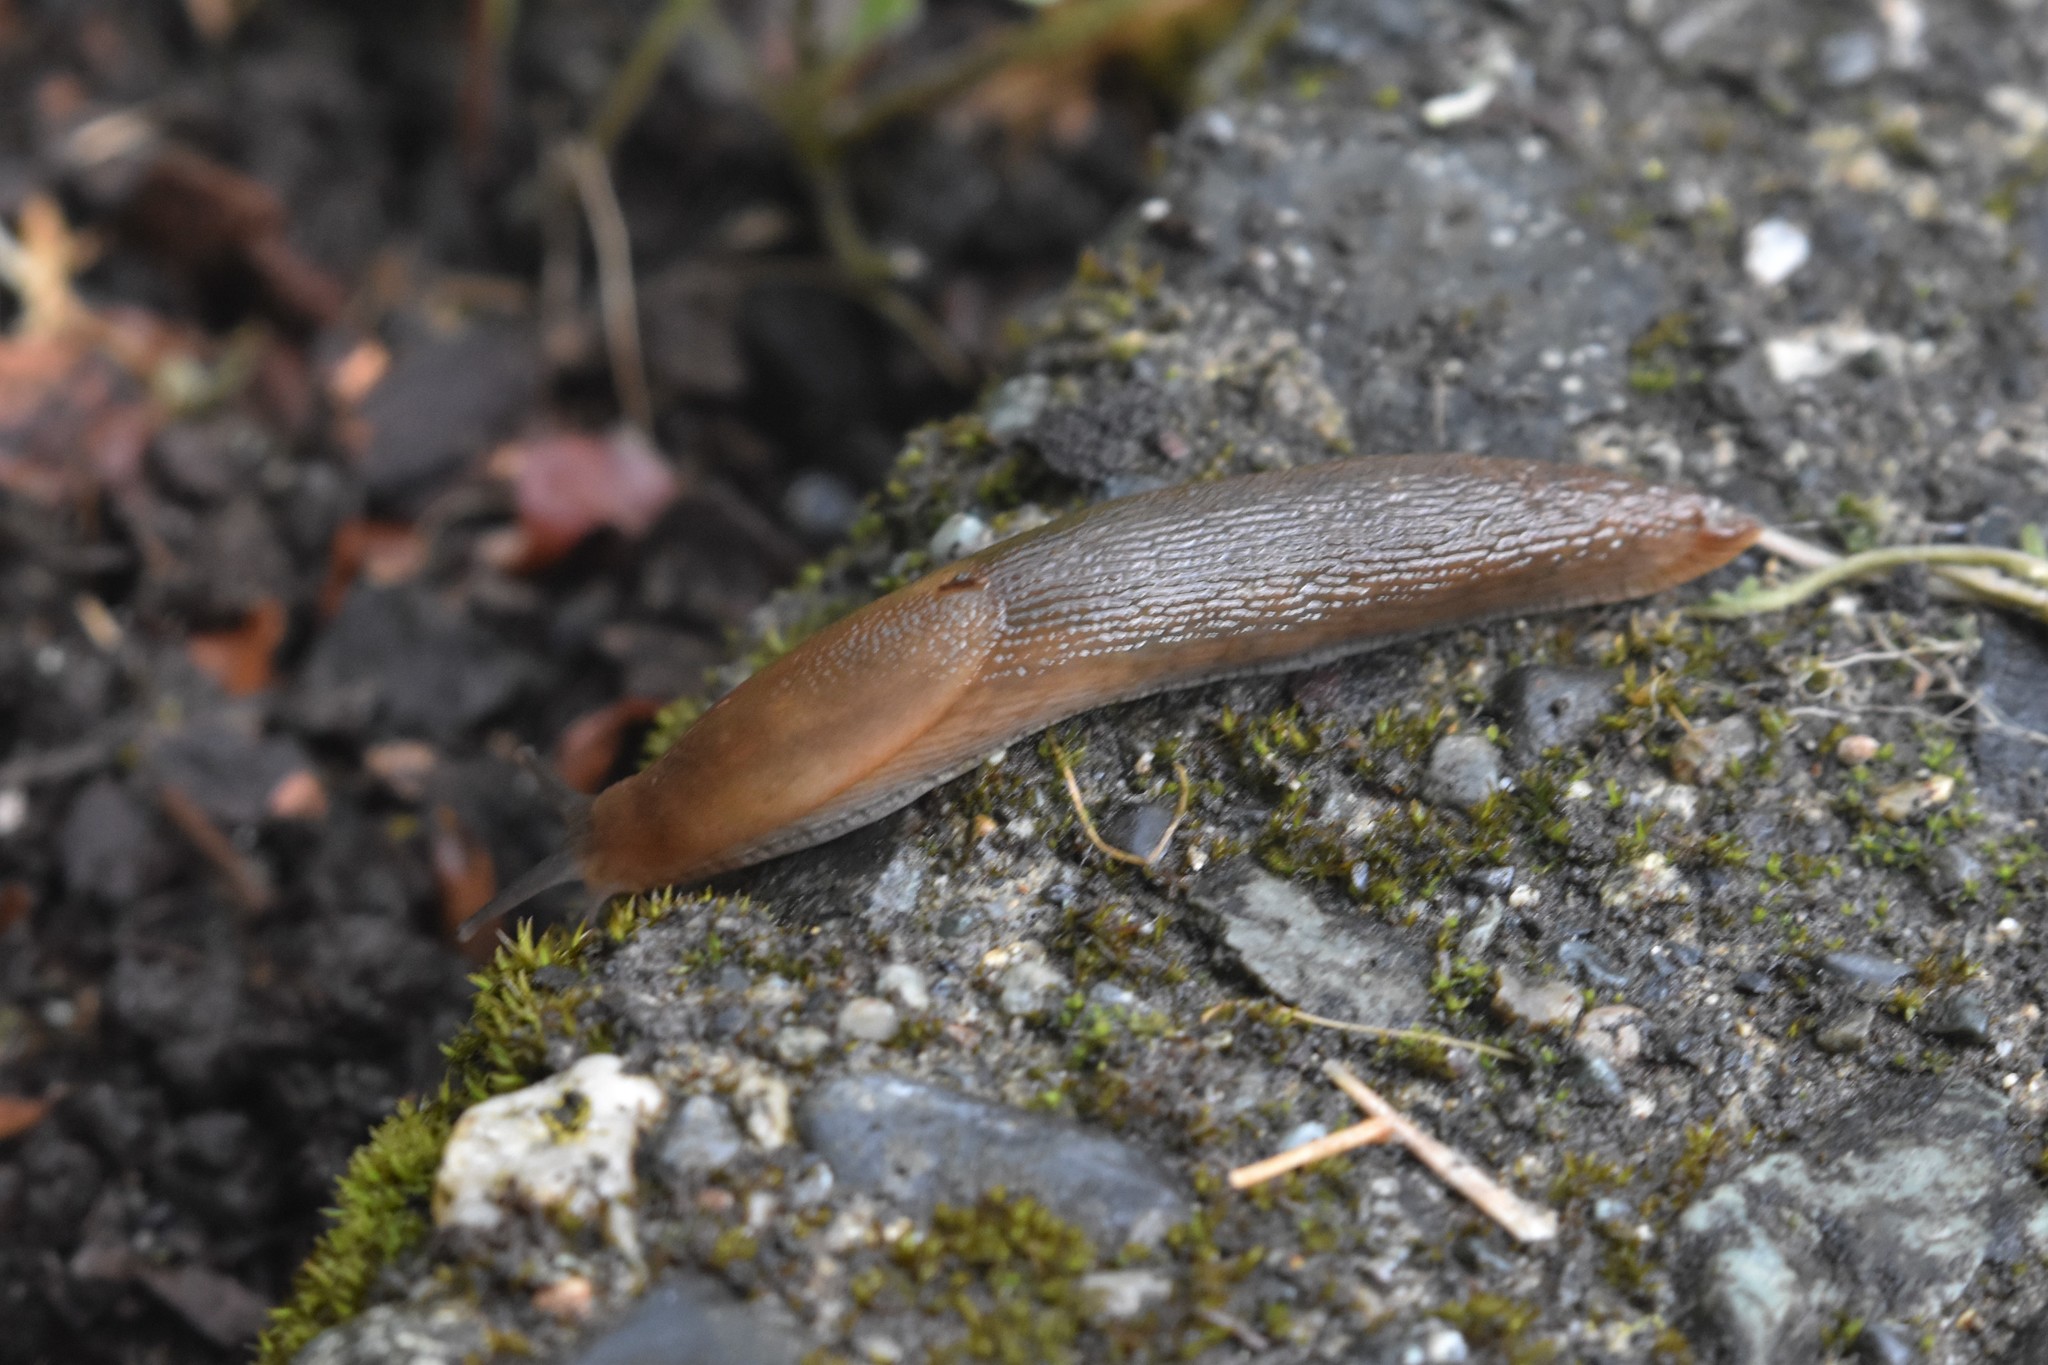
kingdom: Animalia
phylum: Mollusca
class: Gastropoda
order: Stylommatophora
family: Arionidae
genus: Arion
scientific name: Arion subfuscus
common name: Dusky arion
